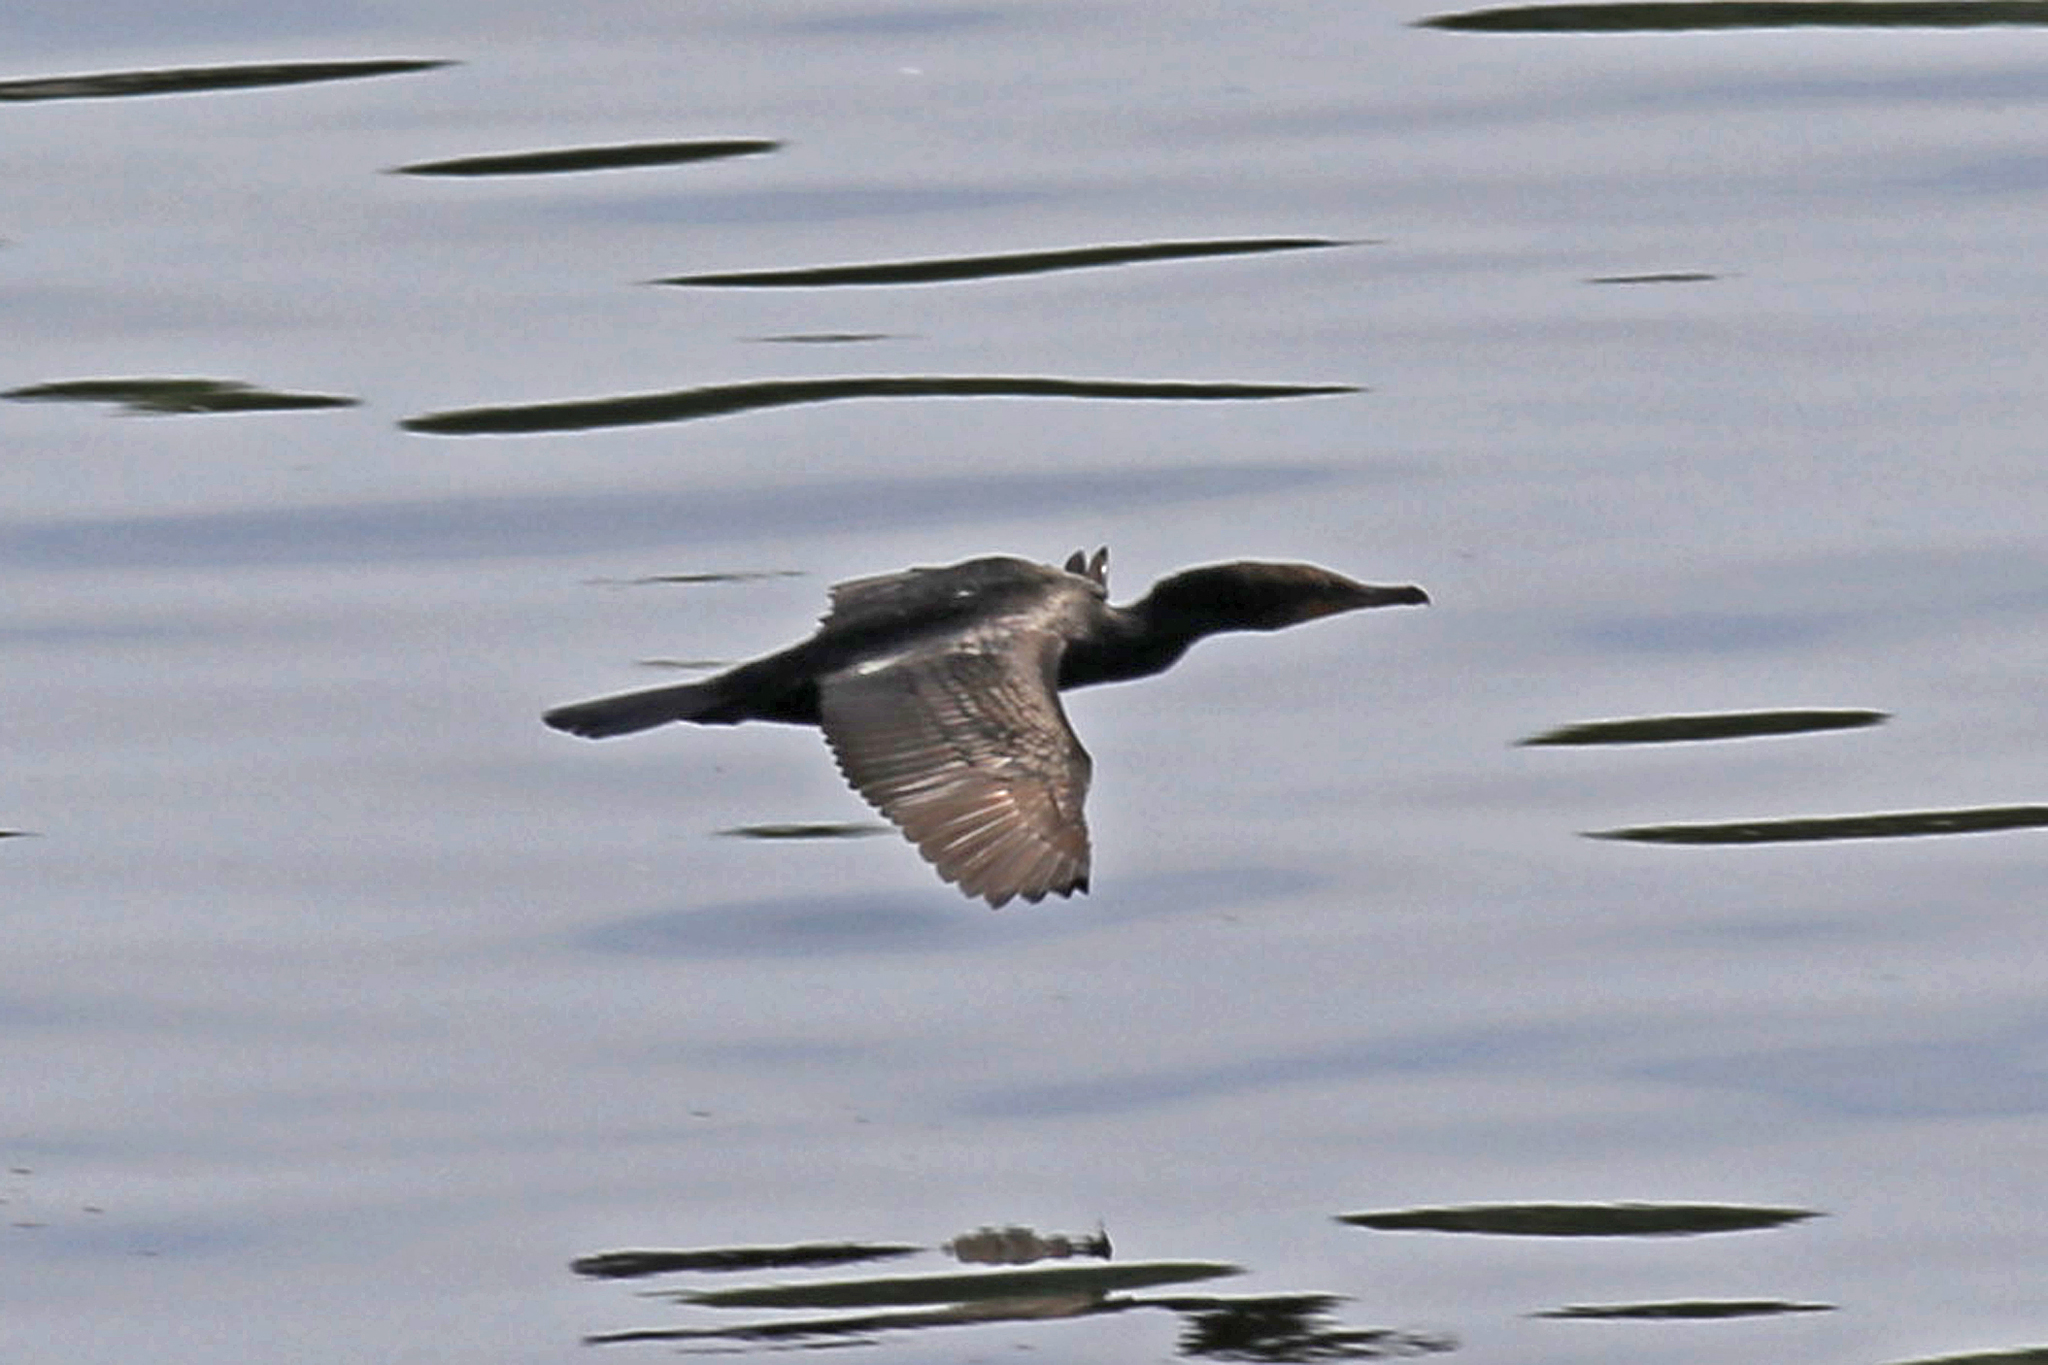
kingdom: Animalia
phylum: Chordata
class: Aves
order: Suliformes
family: Phalacrocoracidae
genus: Phalacrocorax
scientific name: Phalacrocorax auritus
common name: Double-crested cormorant
